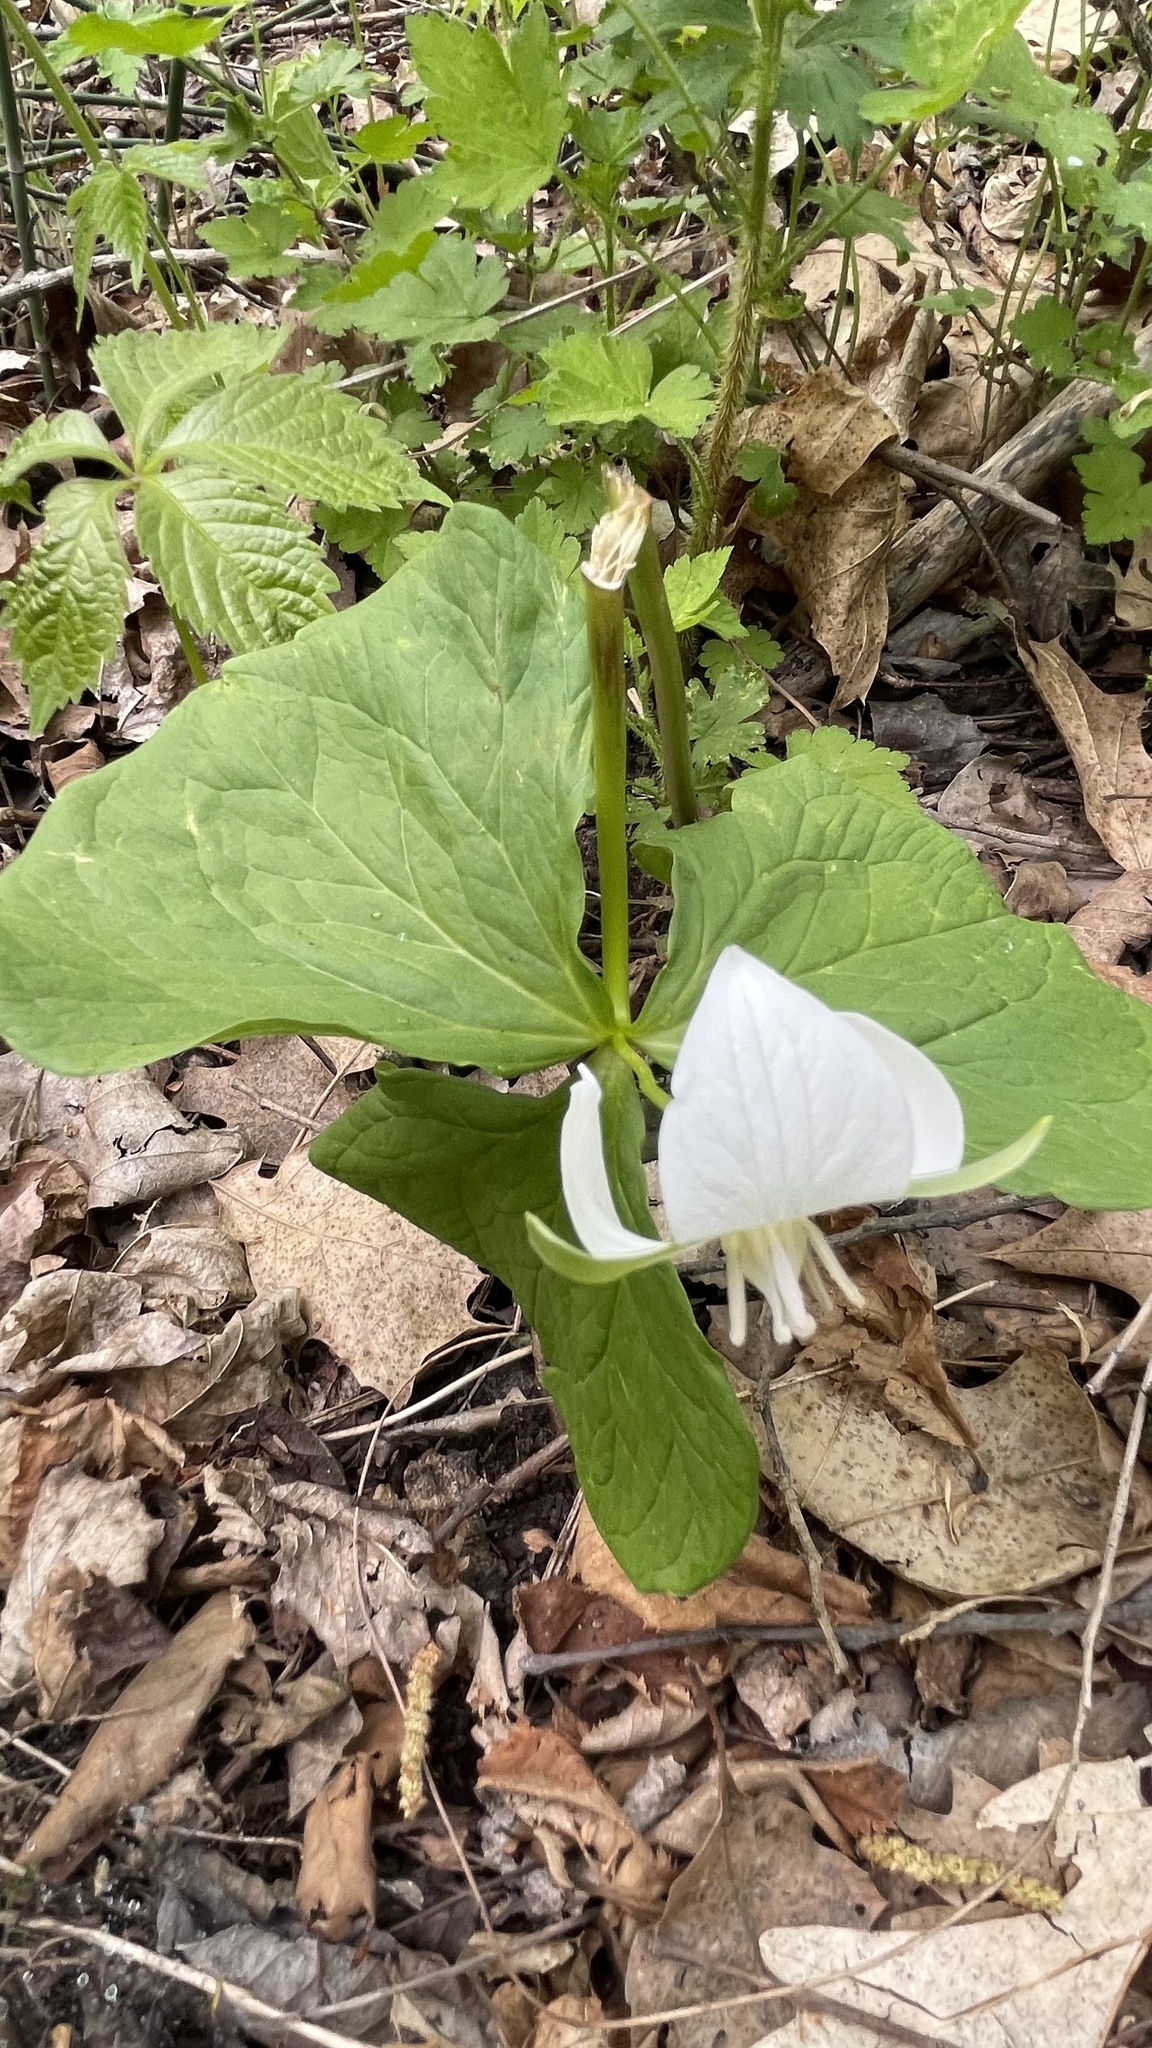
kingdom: Plantae
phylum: Tracheophyta
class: Liliopsida
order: Liliales
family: Melanthiaceae
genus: Trillium
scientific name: Trillium flexipes
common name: Drooping trillium
